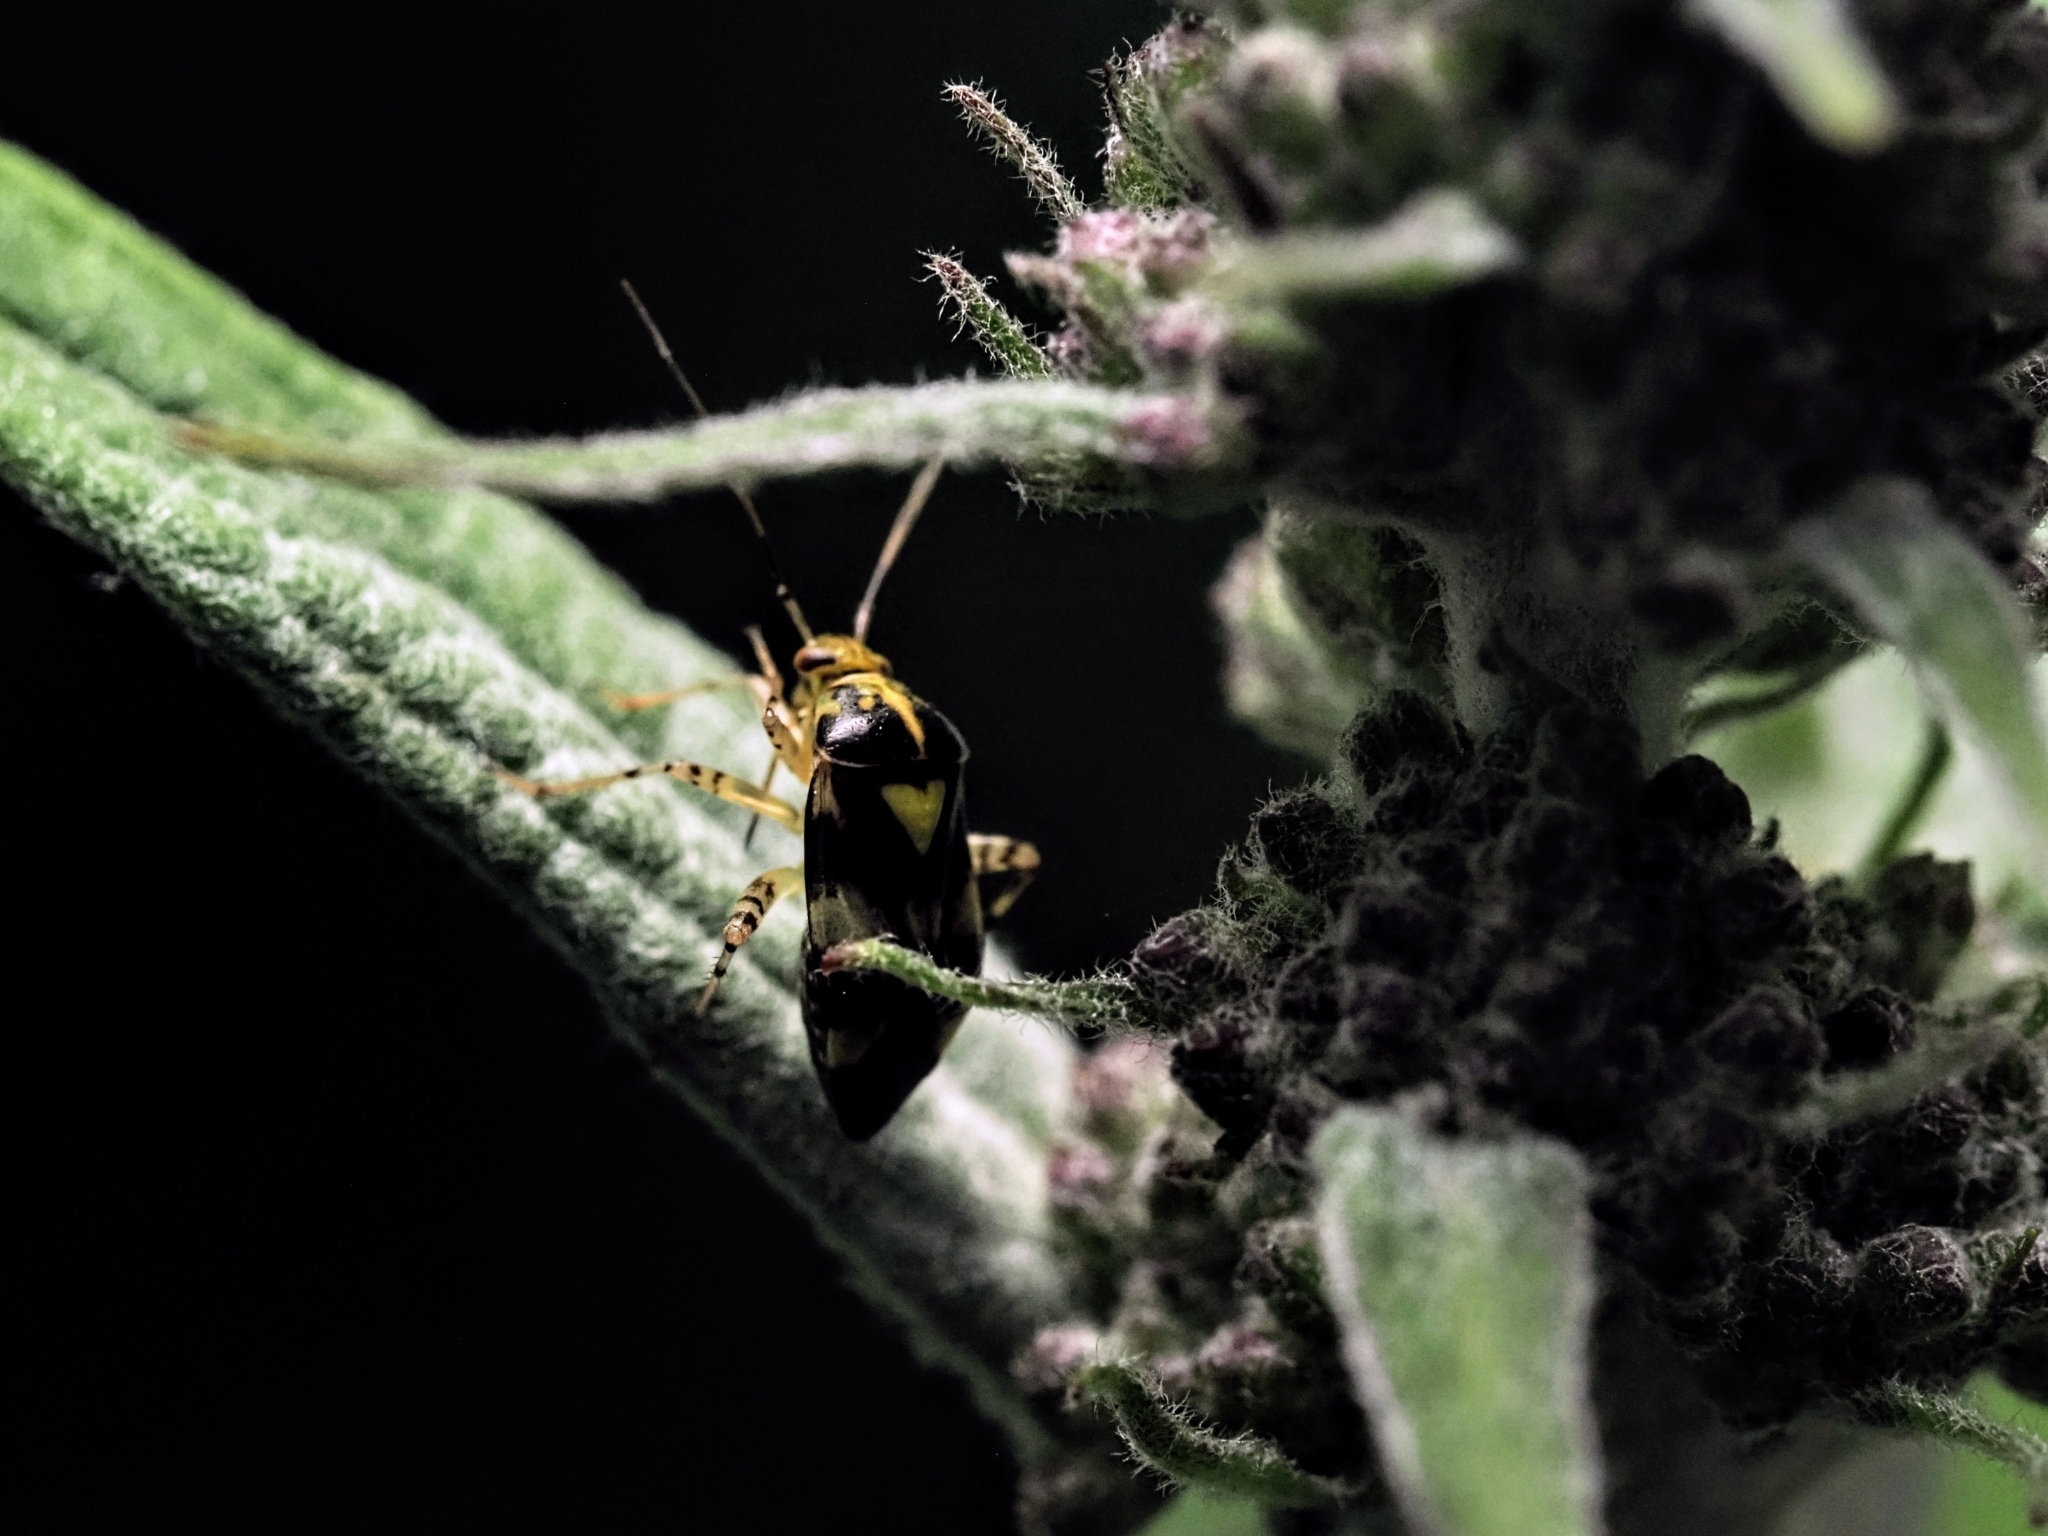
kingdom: Animalia
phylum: Arthropoda
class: Insecta
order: Hemiptera
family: Miridae
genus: Liocoris
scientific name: Liocoris tripustulatus
